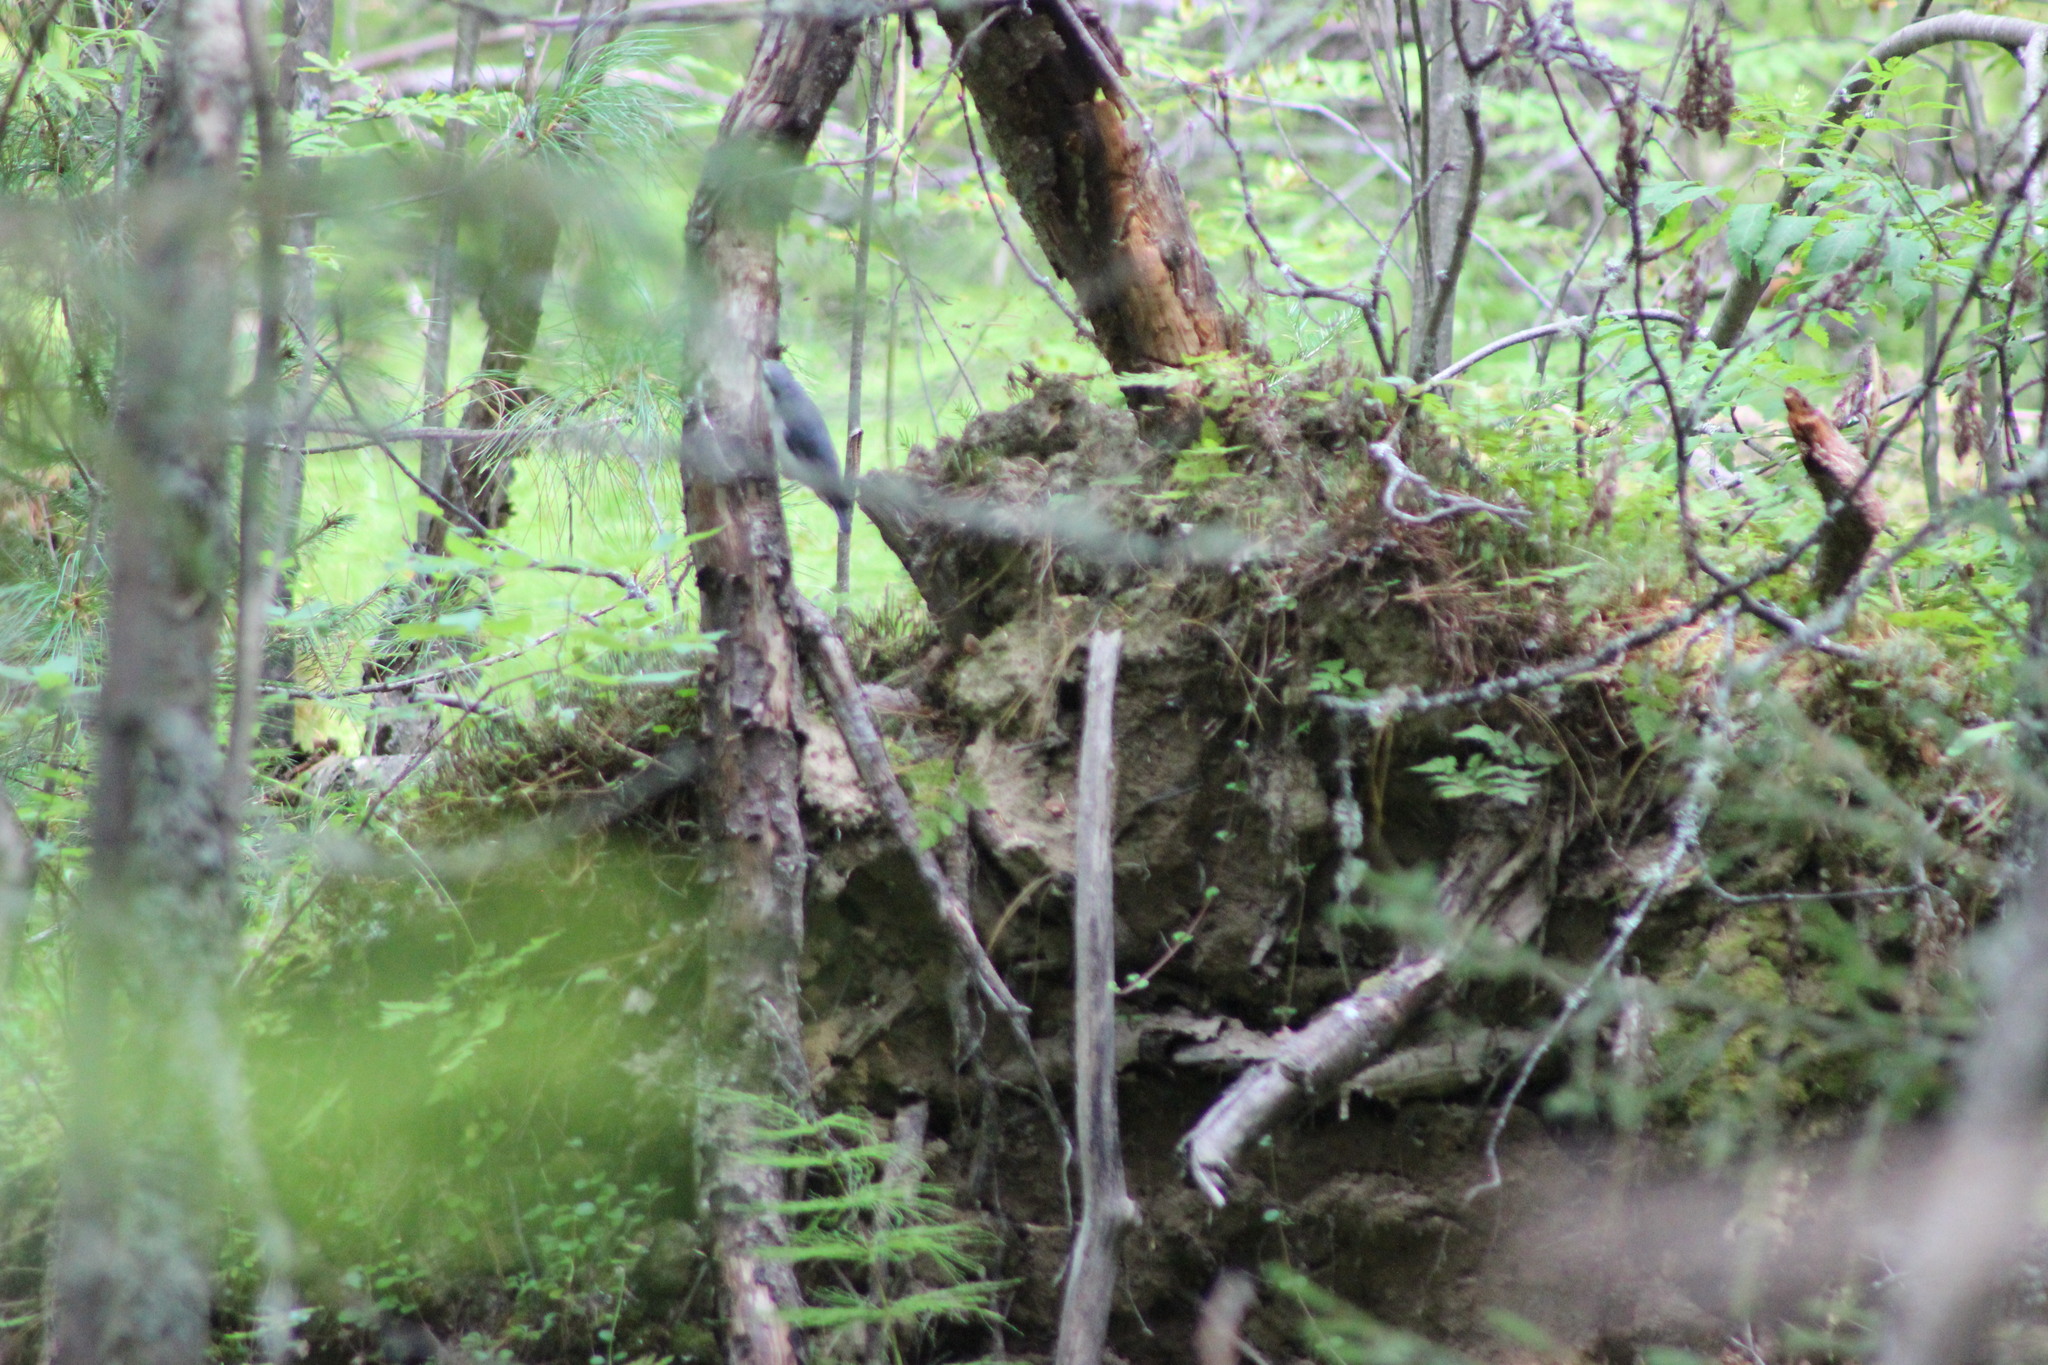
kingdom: Animalia
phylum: Chordata
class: Aves
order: Passeriformes
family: Sittidae
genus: Sitta
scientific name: Sitta europaea
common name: Eurasian nuthatch
